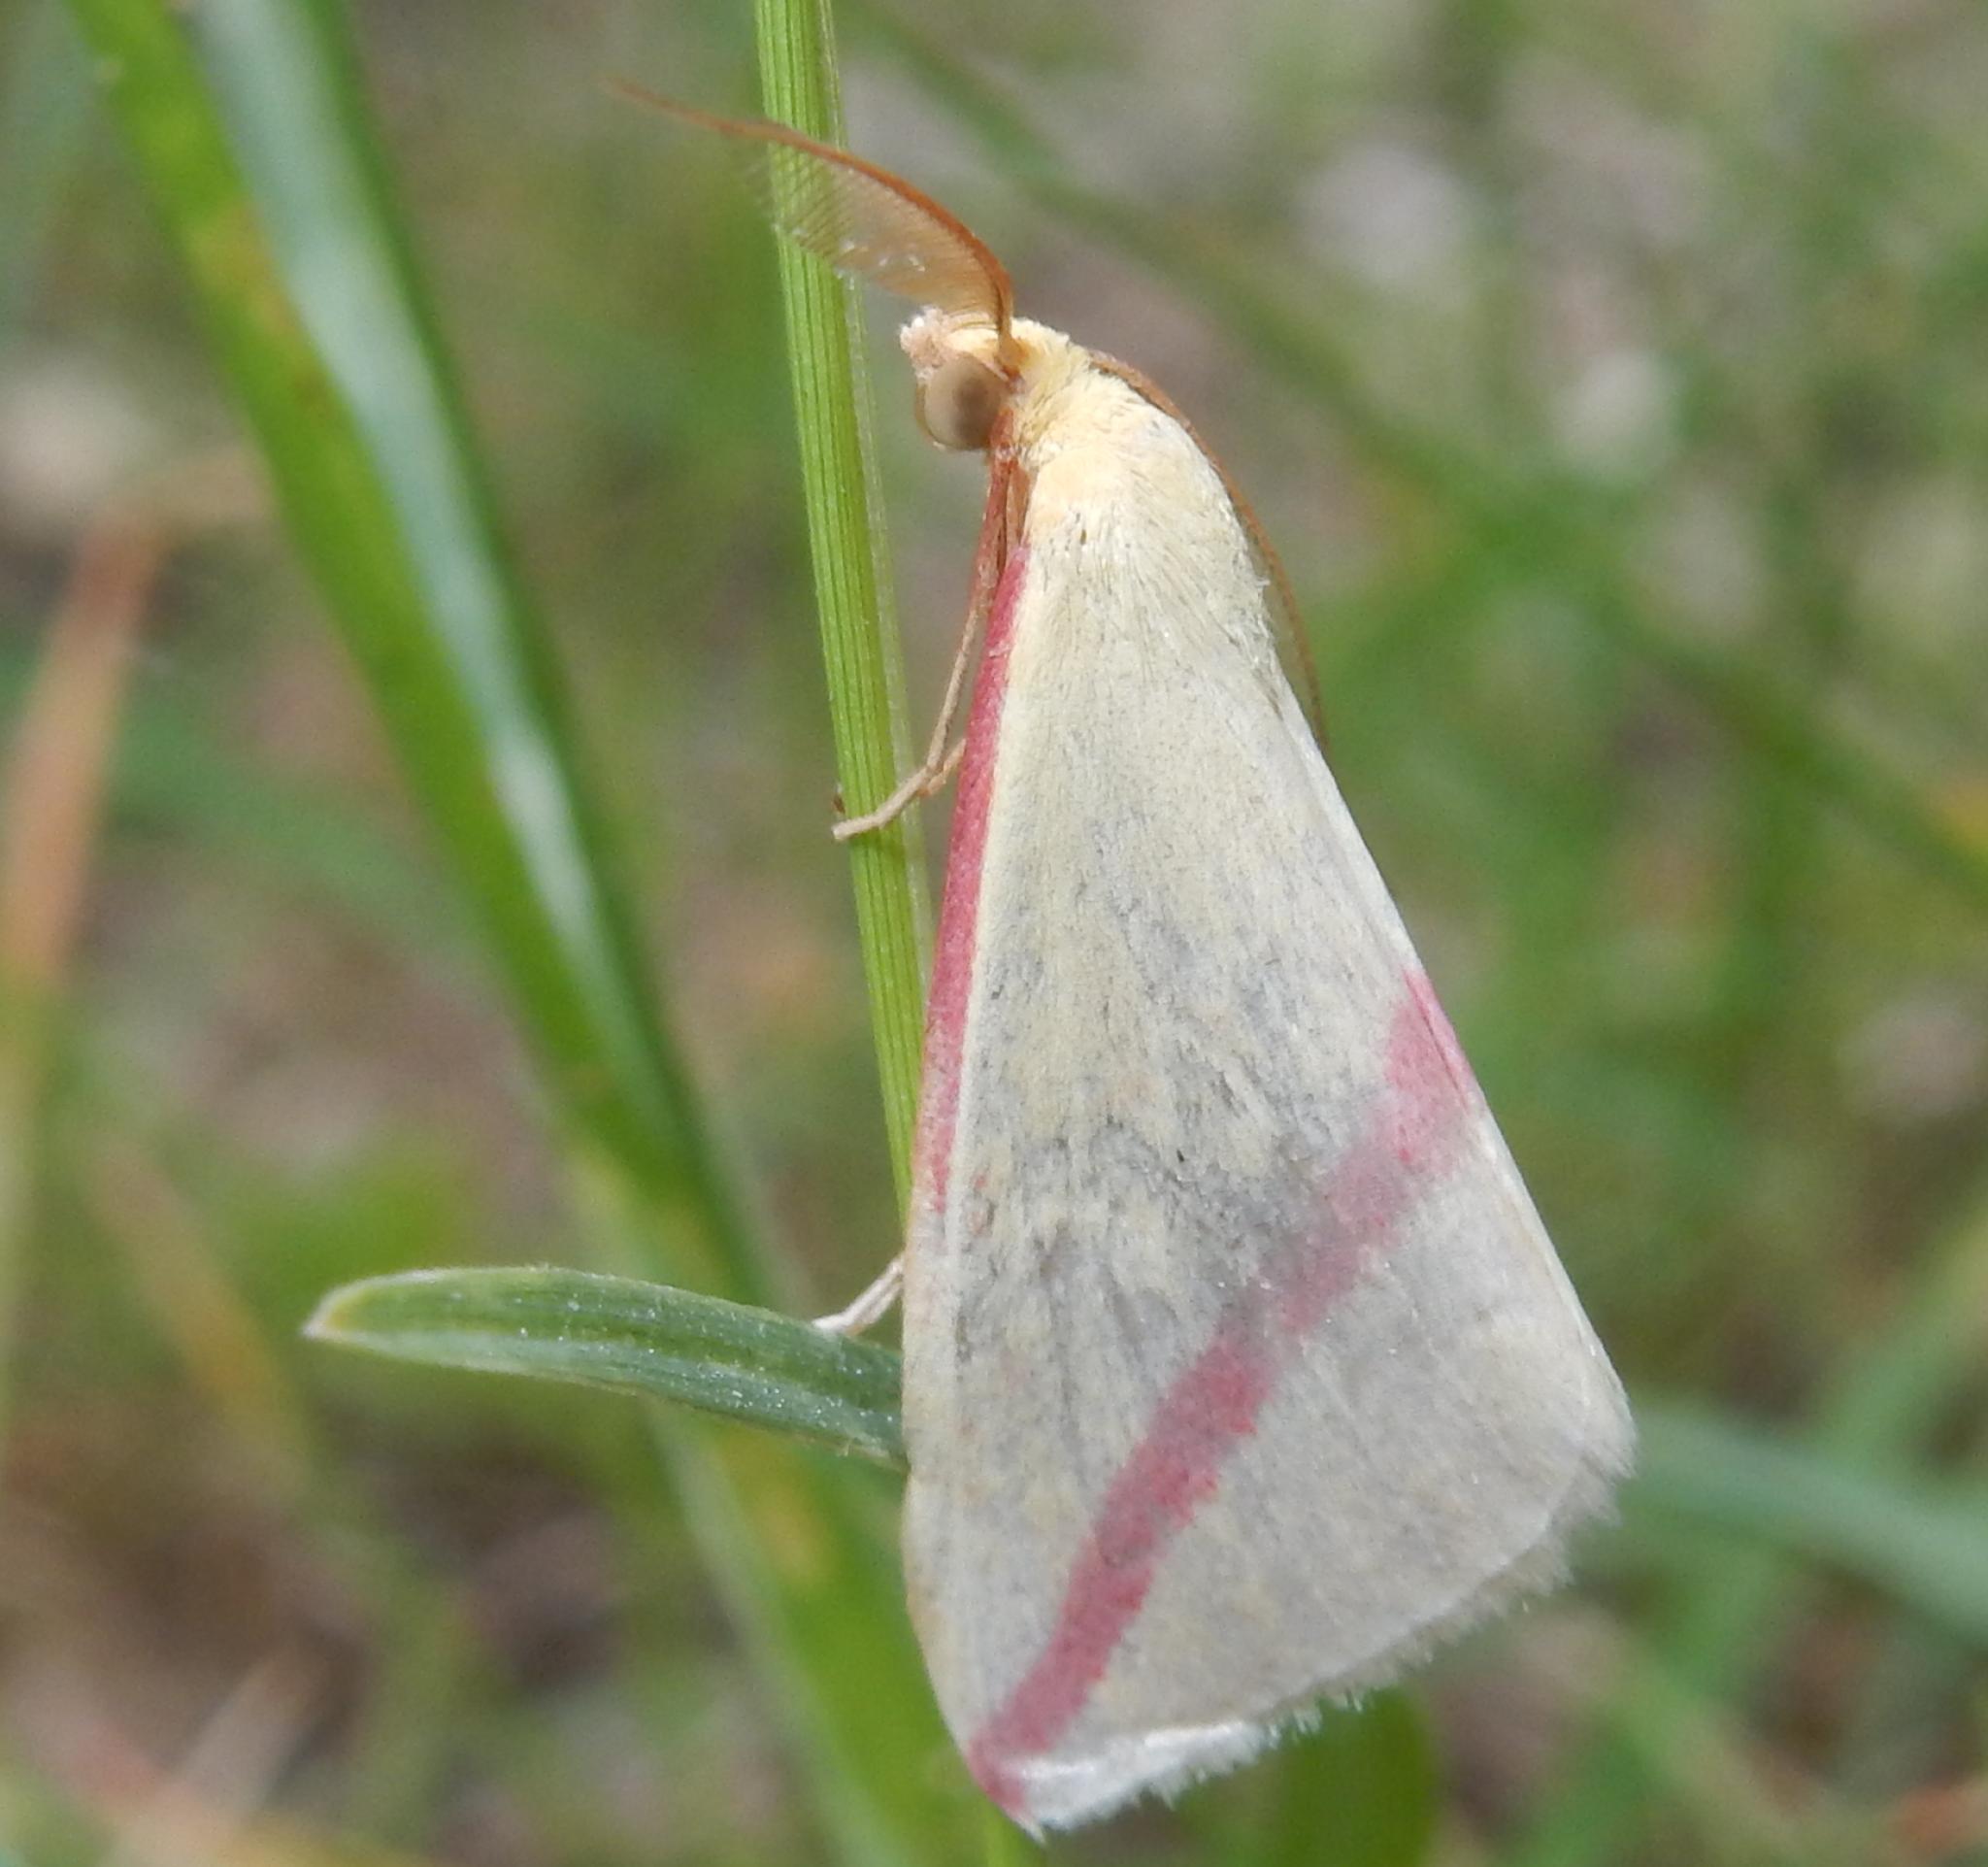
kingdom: Animalia
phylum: Arthropoda
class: Insecta
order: Lepidoptera
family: Geometridae
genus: Rhodometra
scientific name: Rhodometra sacraria
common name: Vestal
